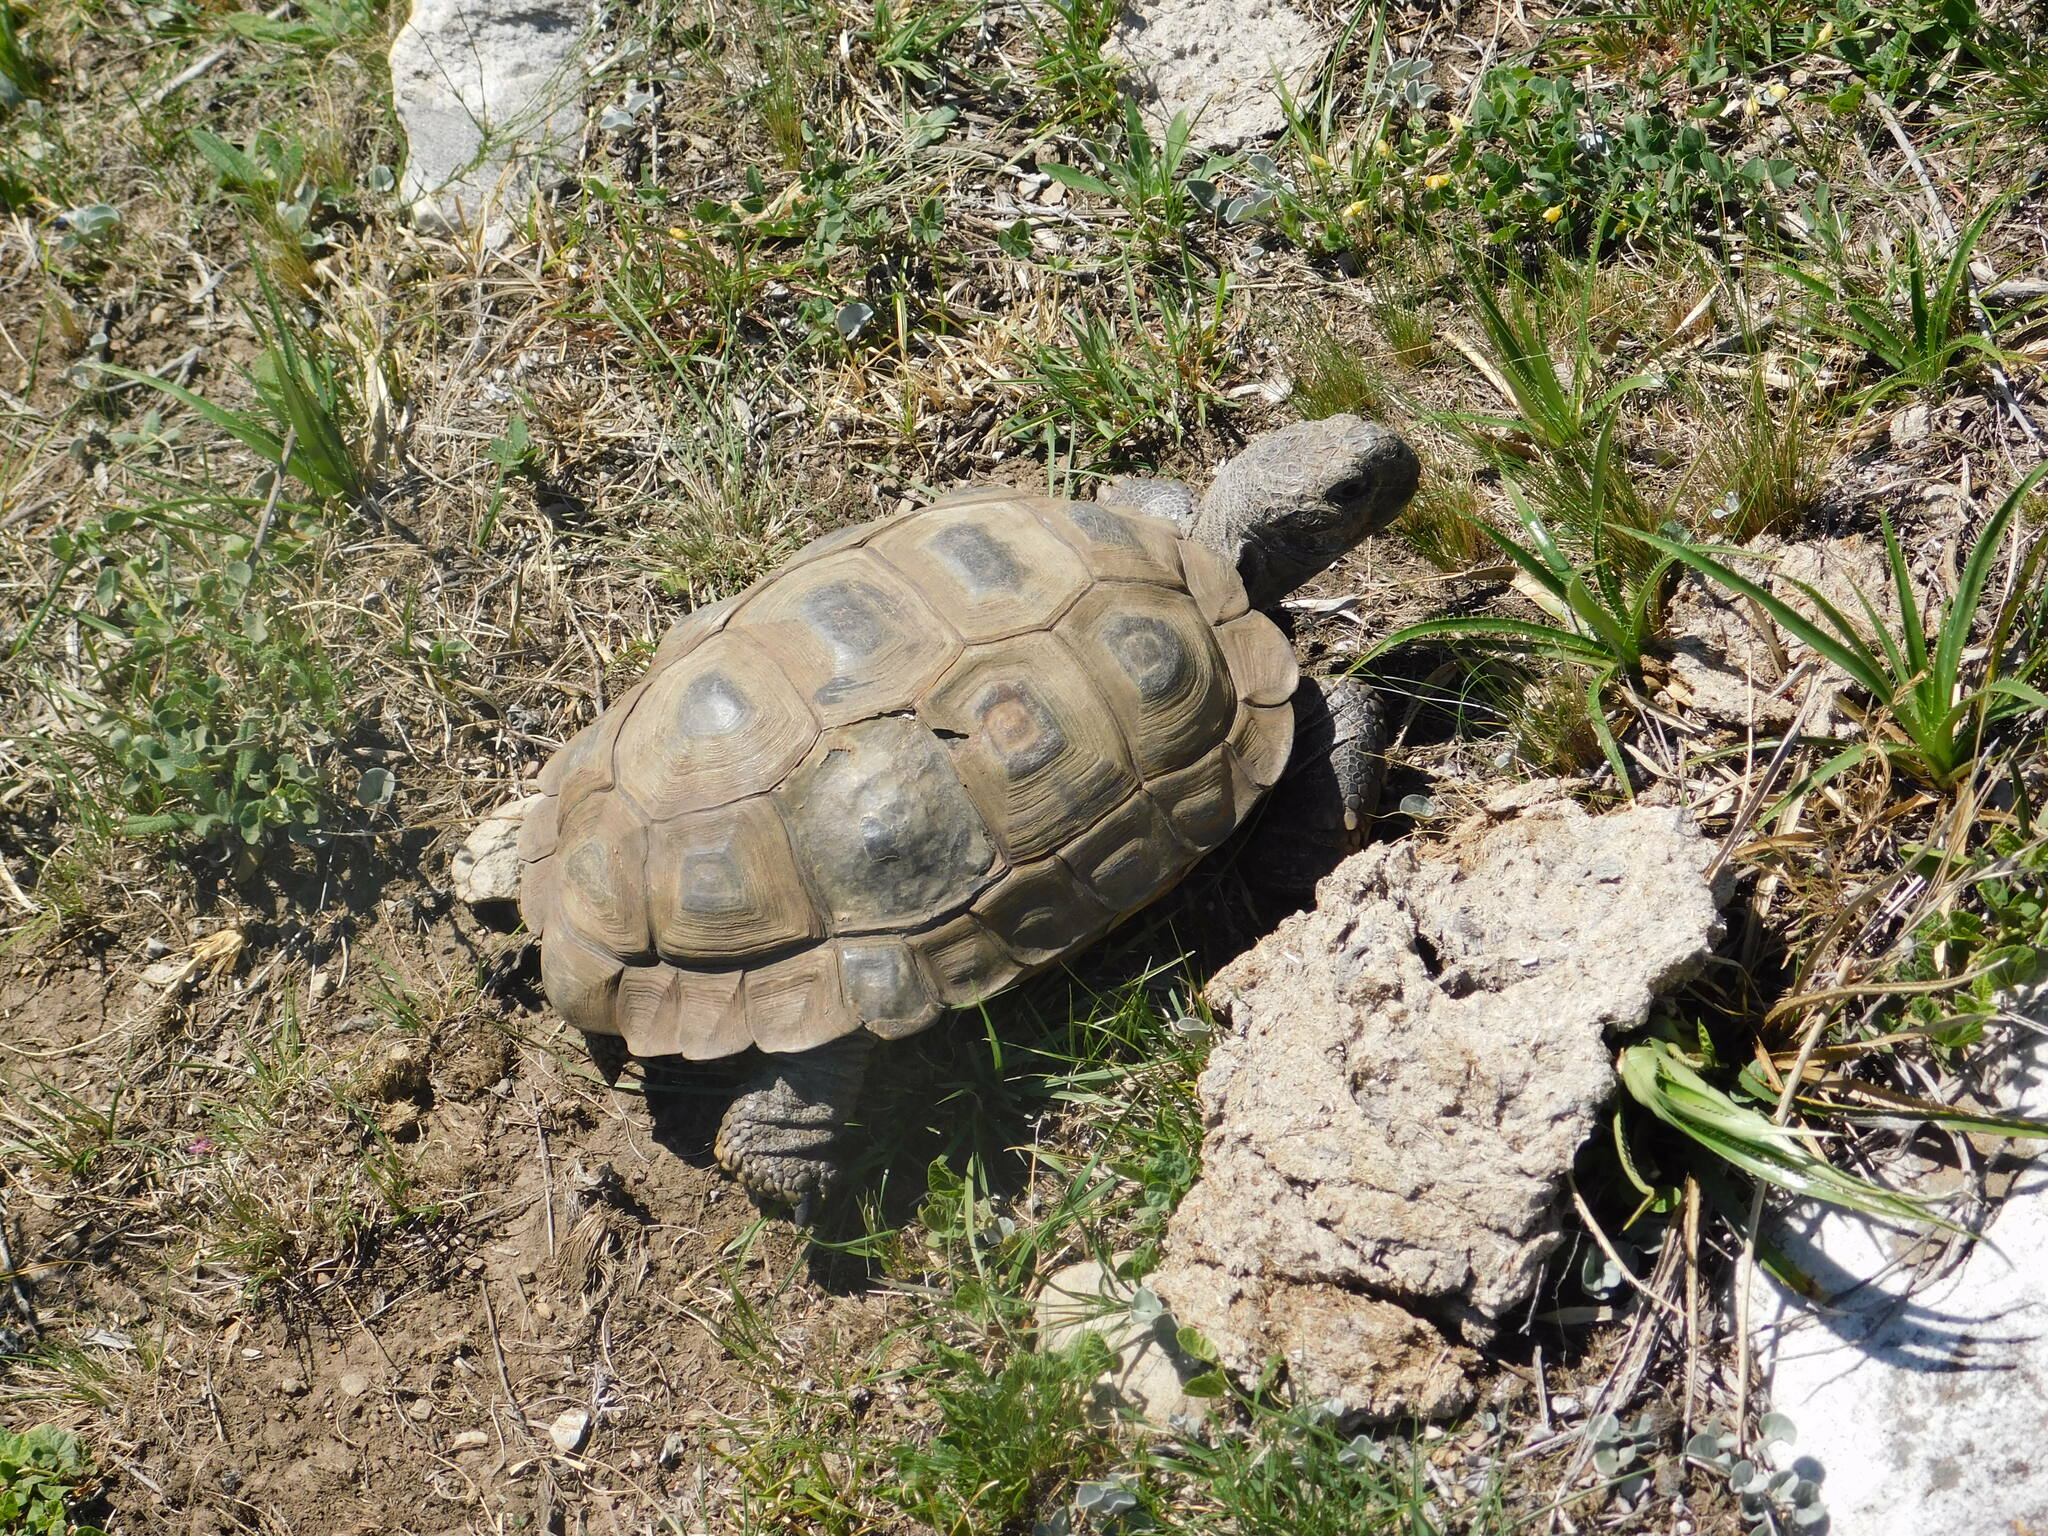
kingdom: Animalia
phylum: Chordata
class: Testudines
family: Testudinidae
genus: Chelonoidis
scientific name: Chelonoidis chilensis
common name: Chaco tortoise
